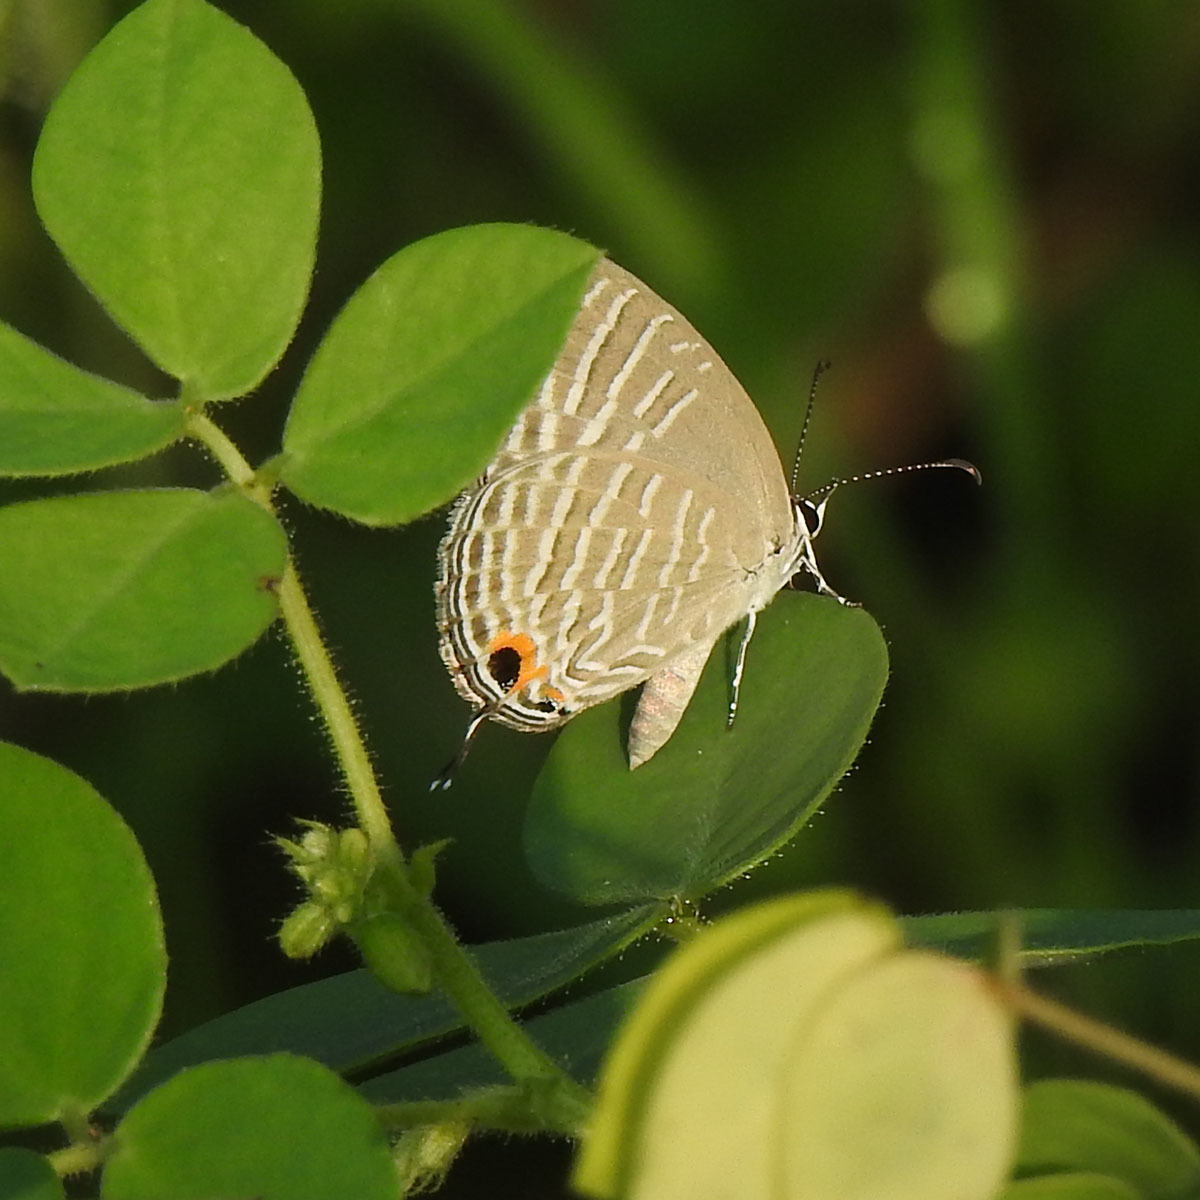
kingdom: Animalia
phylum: Arthropoda
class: Insecta
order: Lepidoptera
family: Lycaenidae
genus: Jamides
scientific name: Jamides celeno
